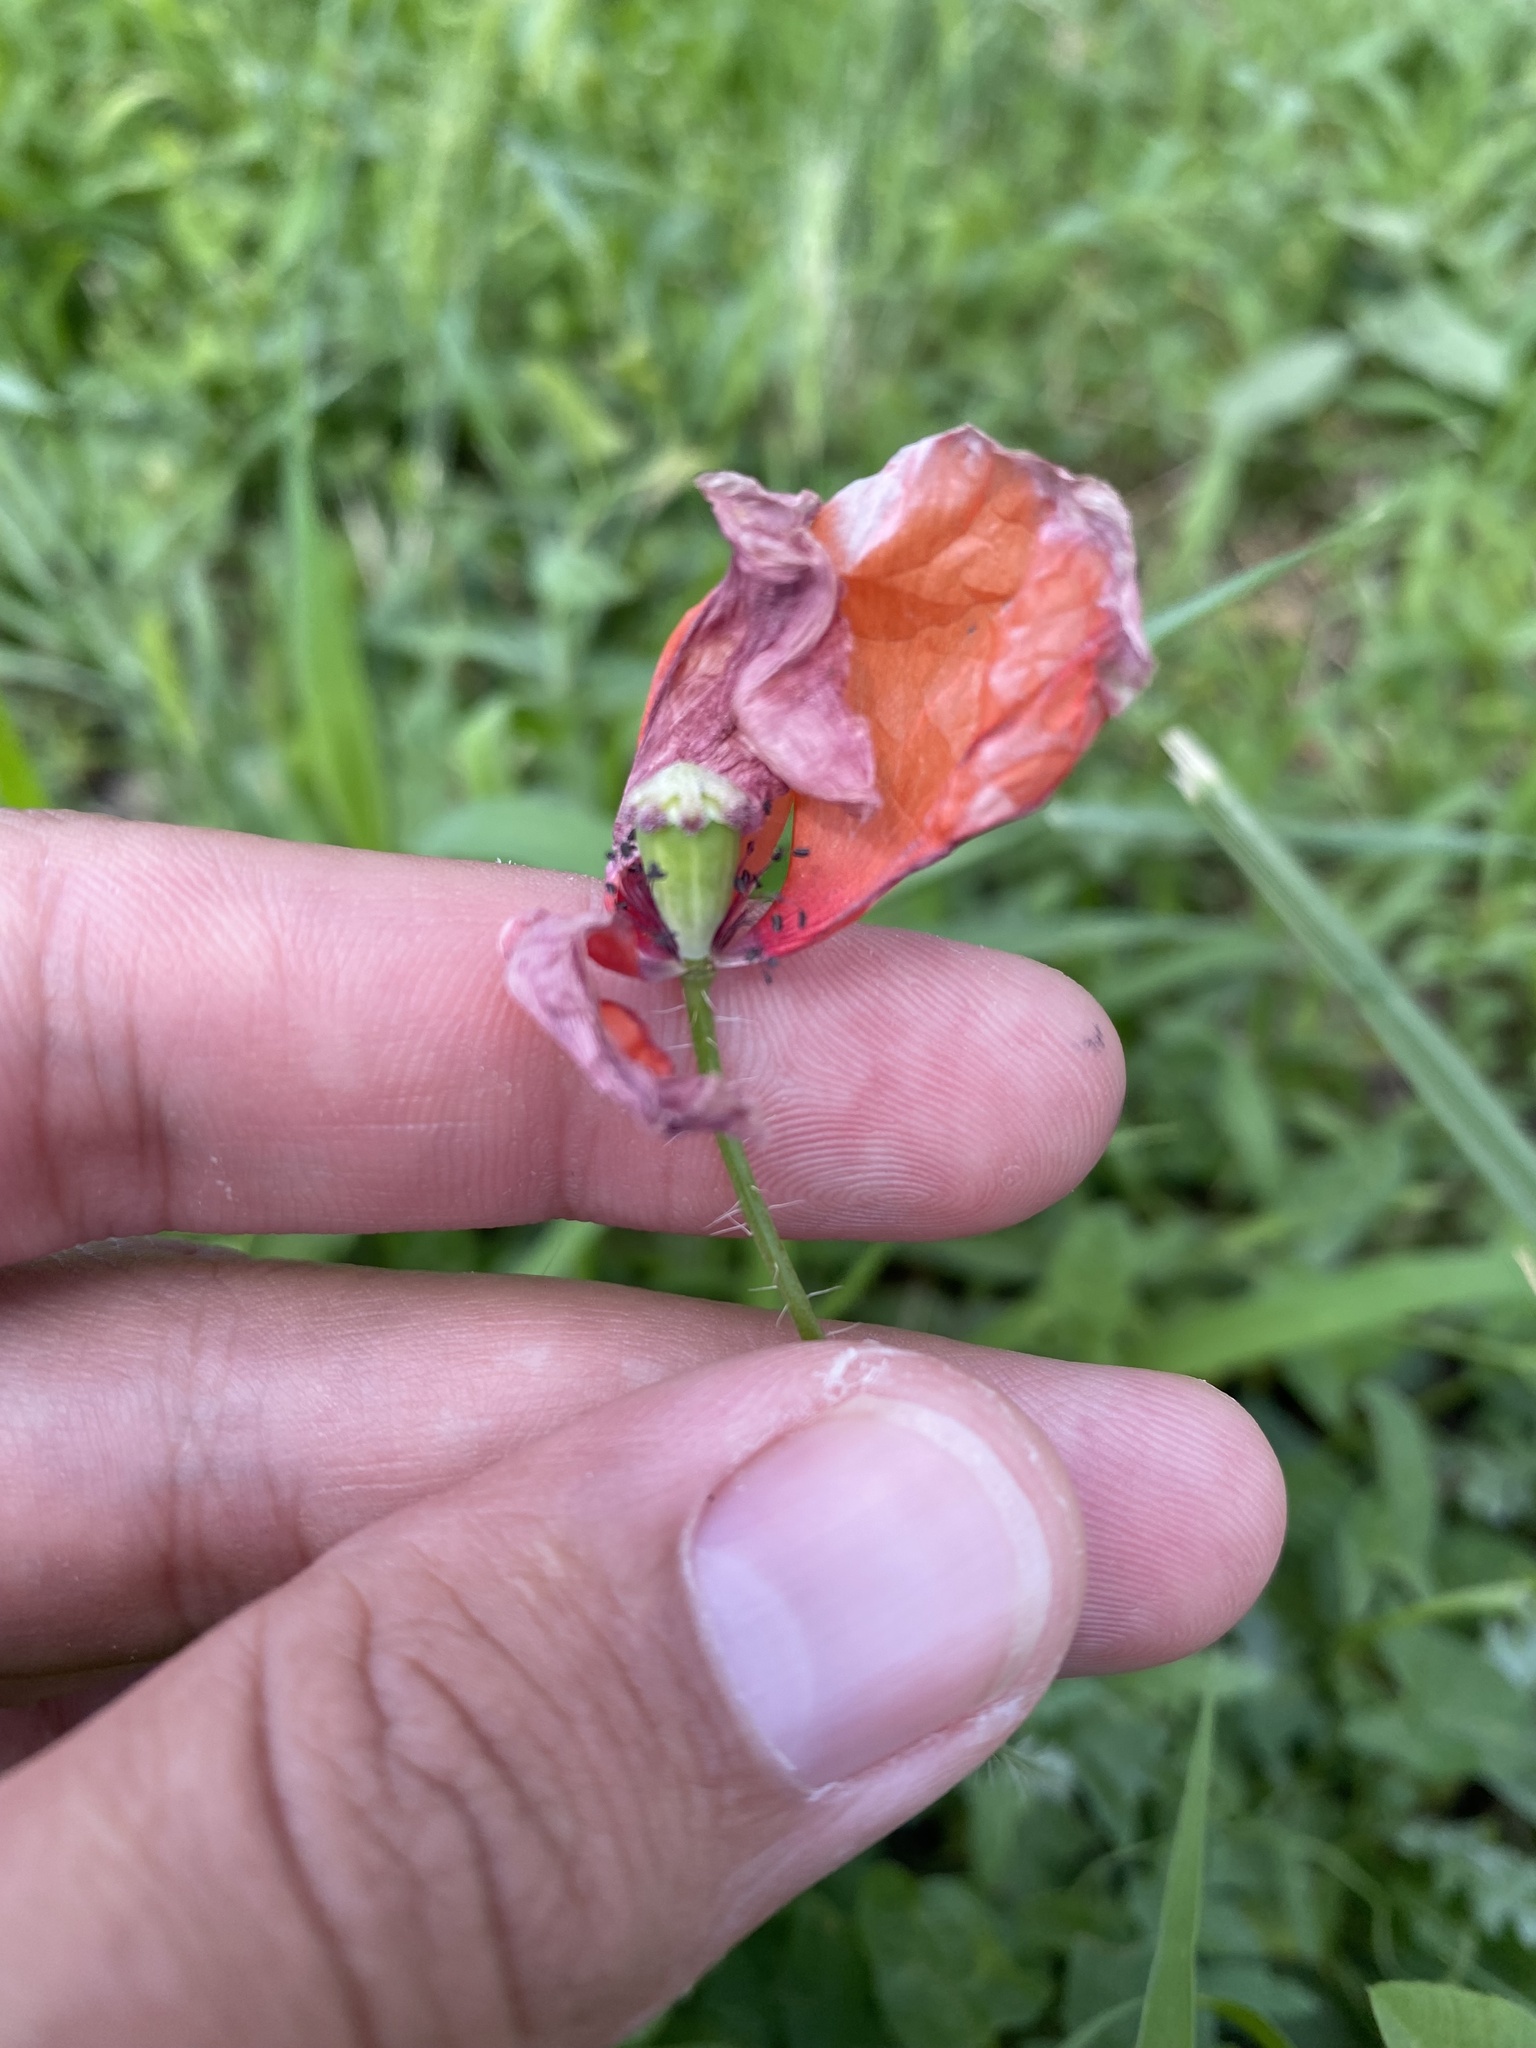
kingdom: Plantae
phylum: Tracheophyta
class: Magnoliopsida
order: Ranunculales
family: Papaveraceae
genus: Papaver
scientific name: Papaver rhoeas
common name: Corn poppy
